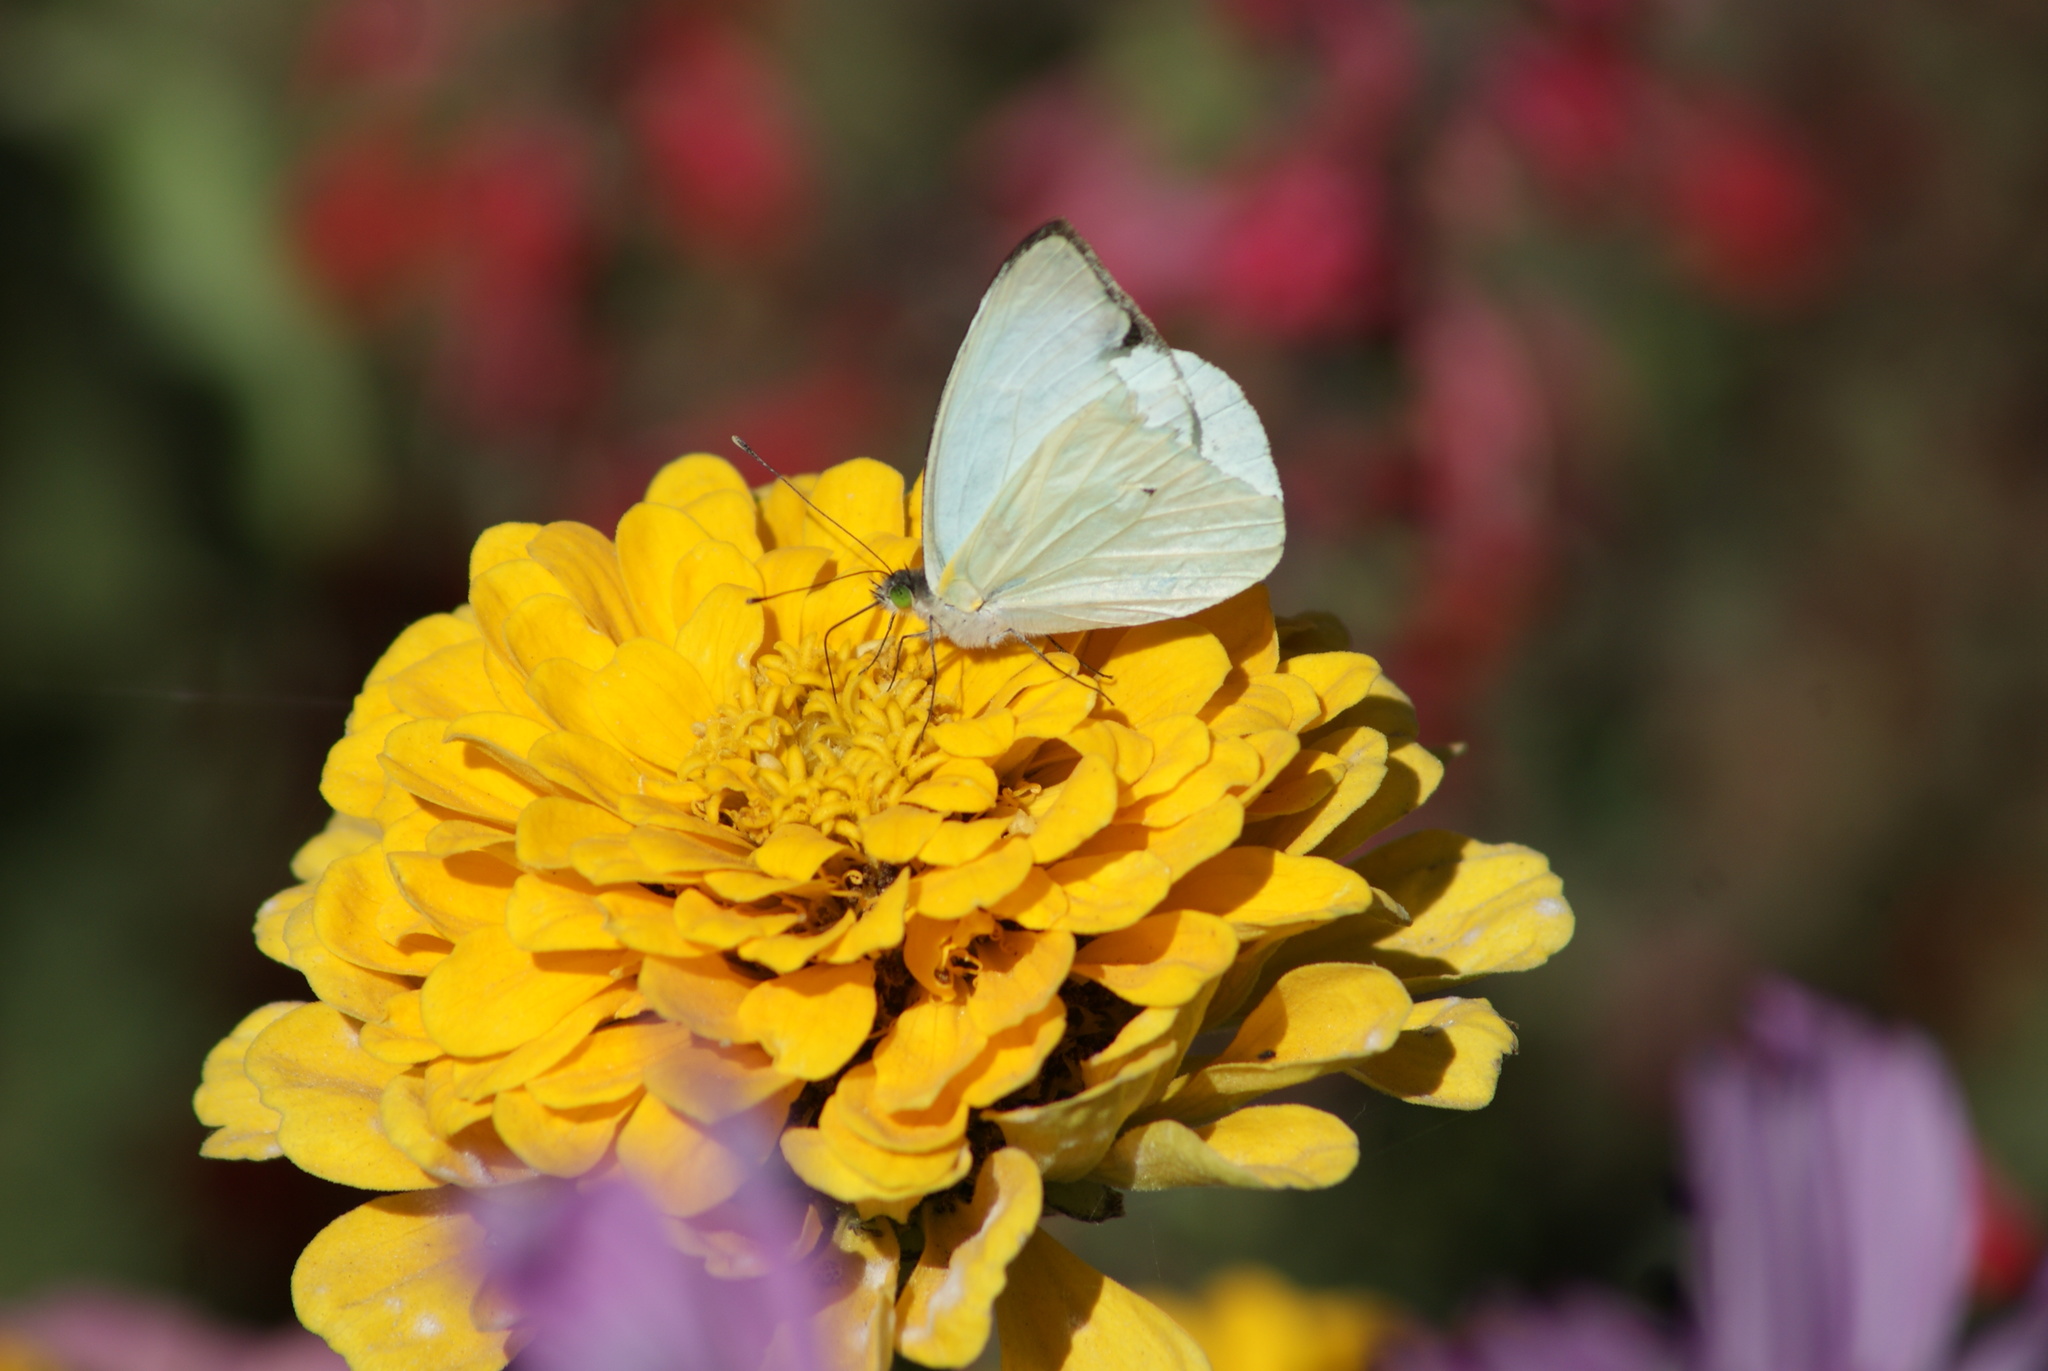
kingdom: Animalia
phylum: Arthropoda
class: Insecta
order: Lepidoptera
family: Pieridae
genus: Leptophobia
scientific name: Leptophobia aripa
